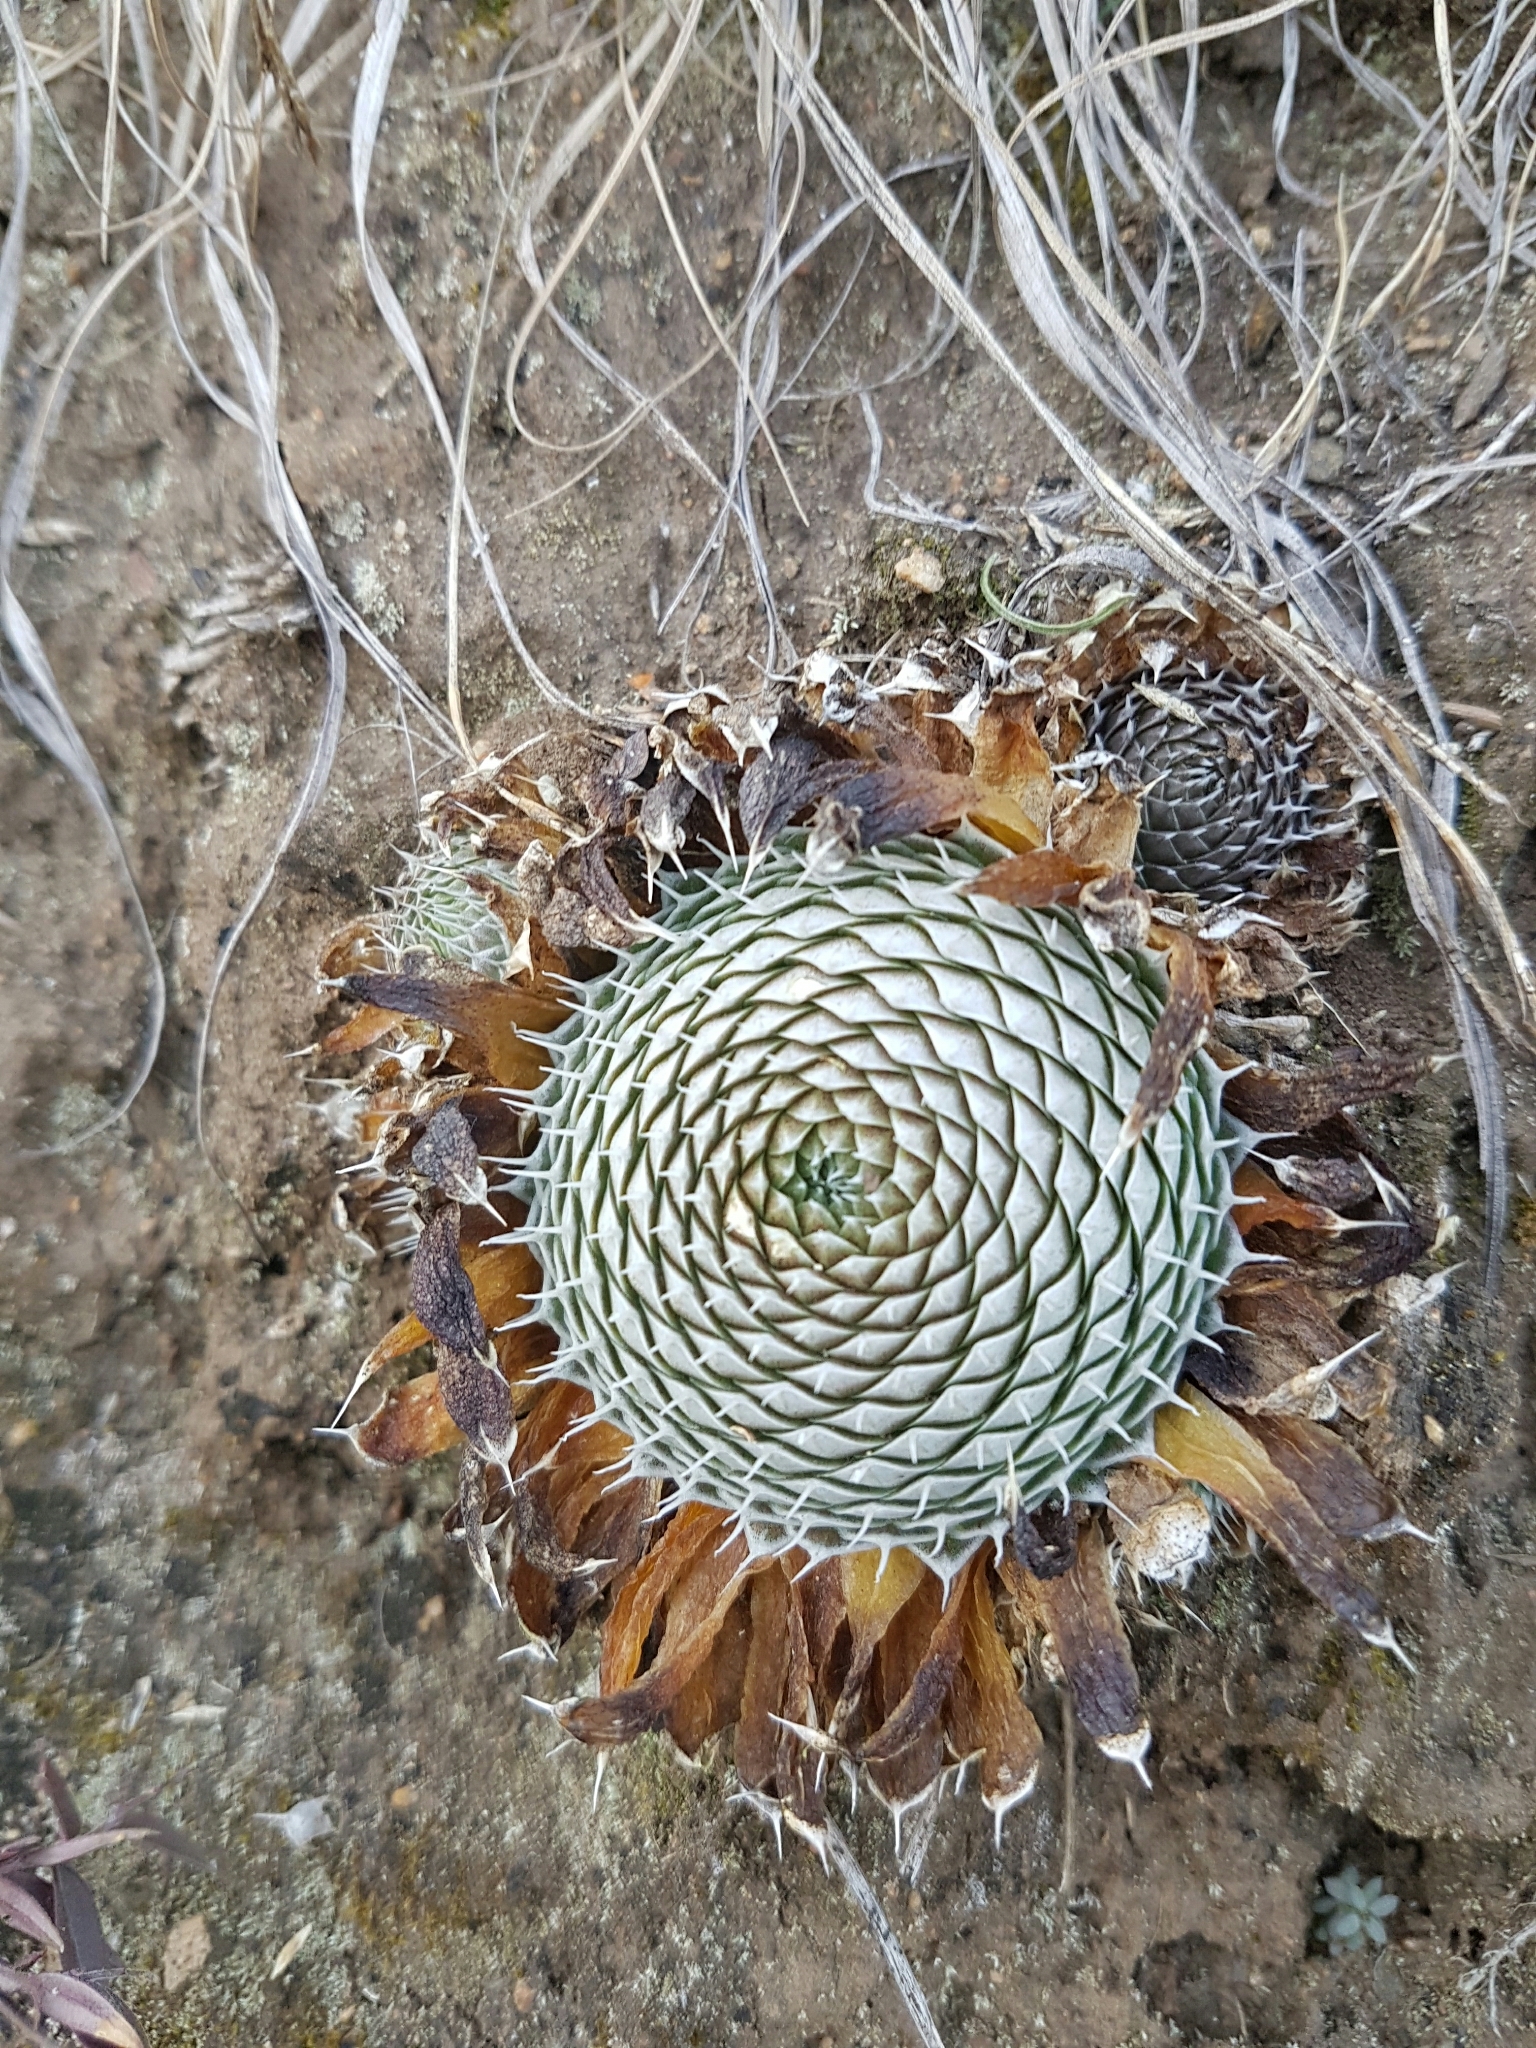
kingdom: Plantae
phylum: Tracheophyta
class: Magnoliopsida
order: Saxifragales
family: Crassulaceae
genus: Orostachys
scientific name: Orostachys spinosa
